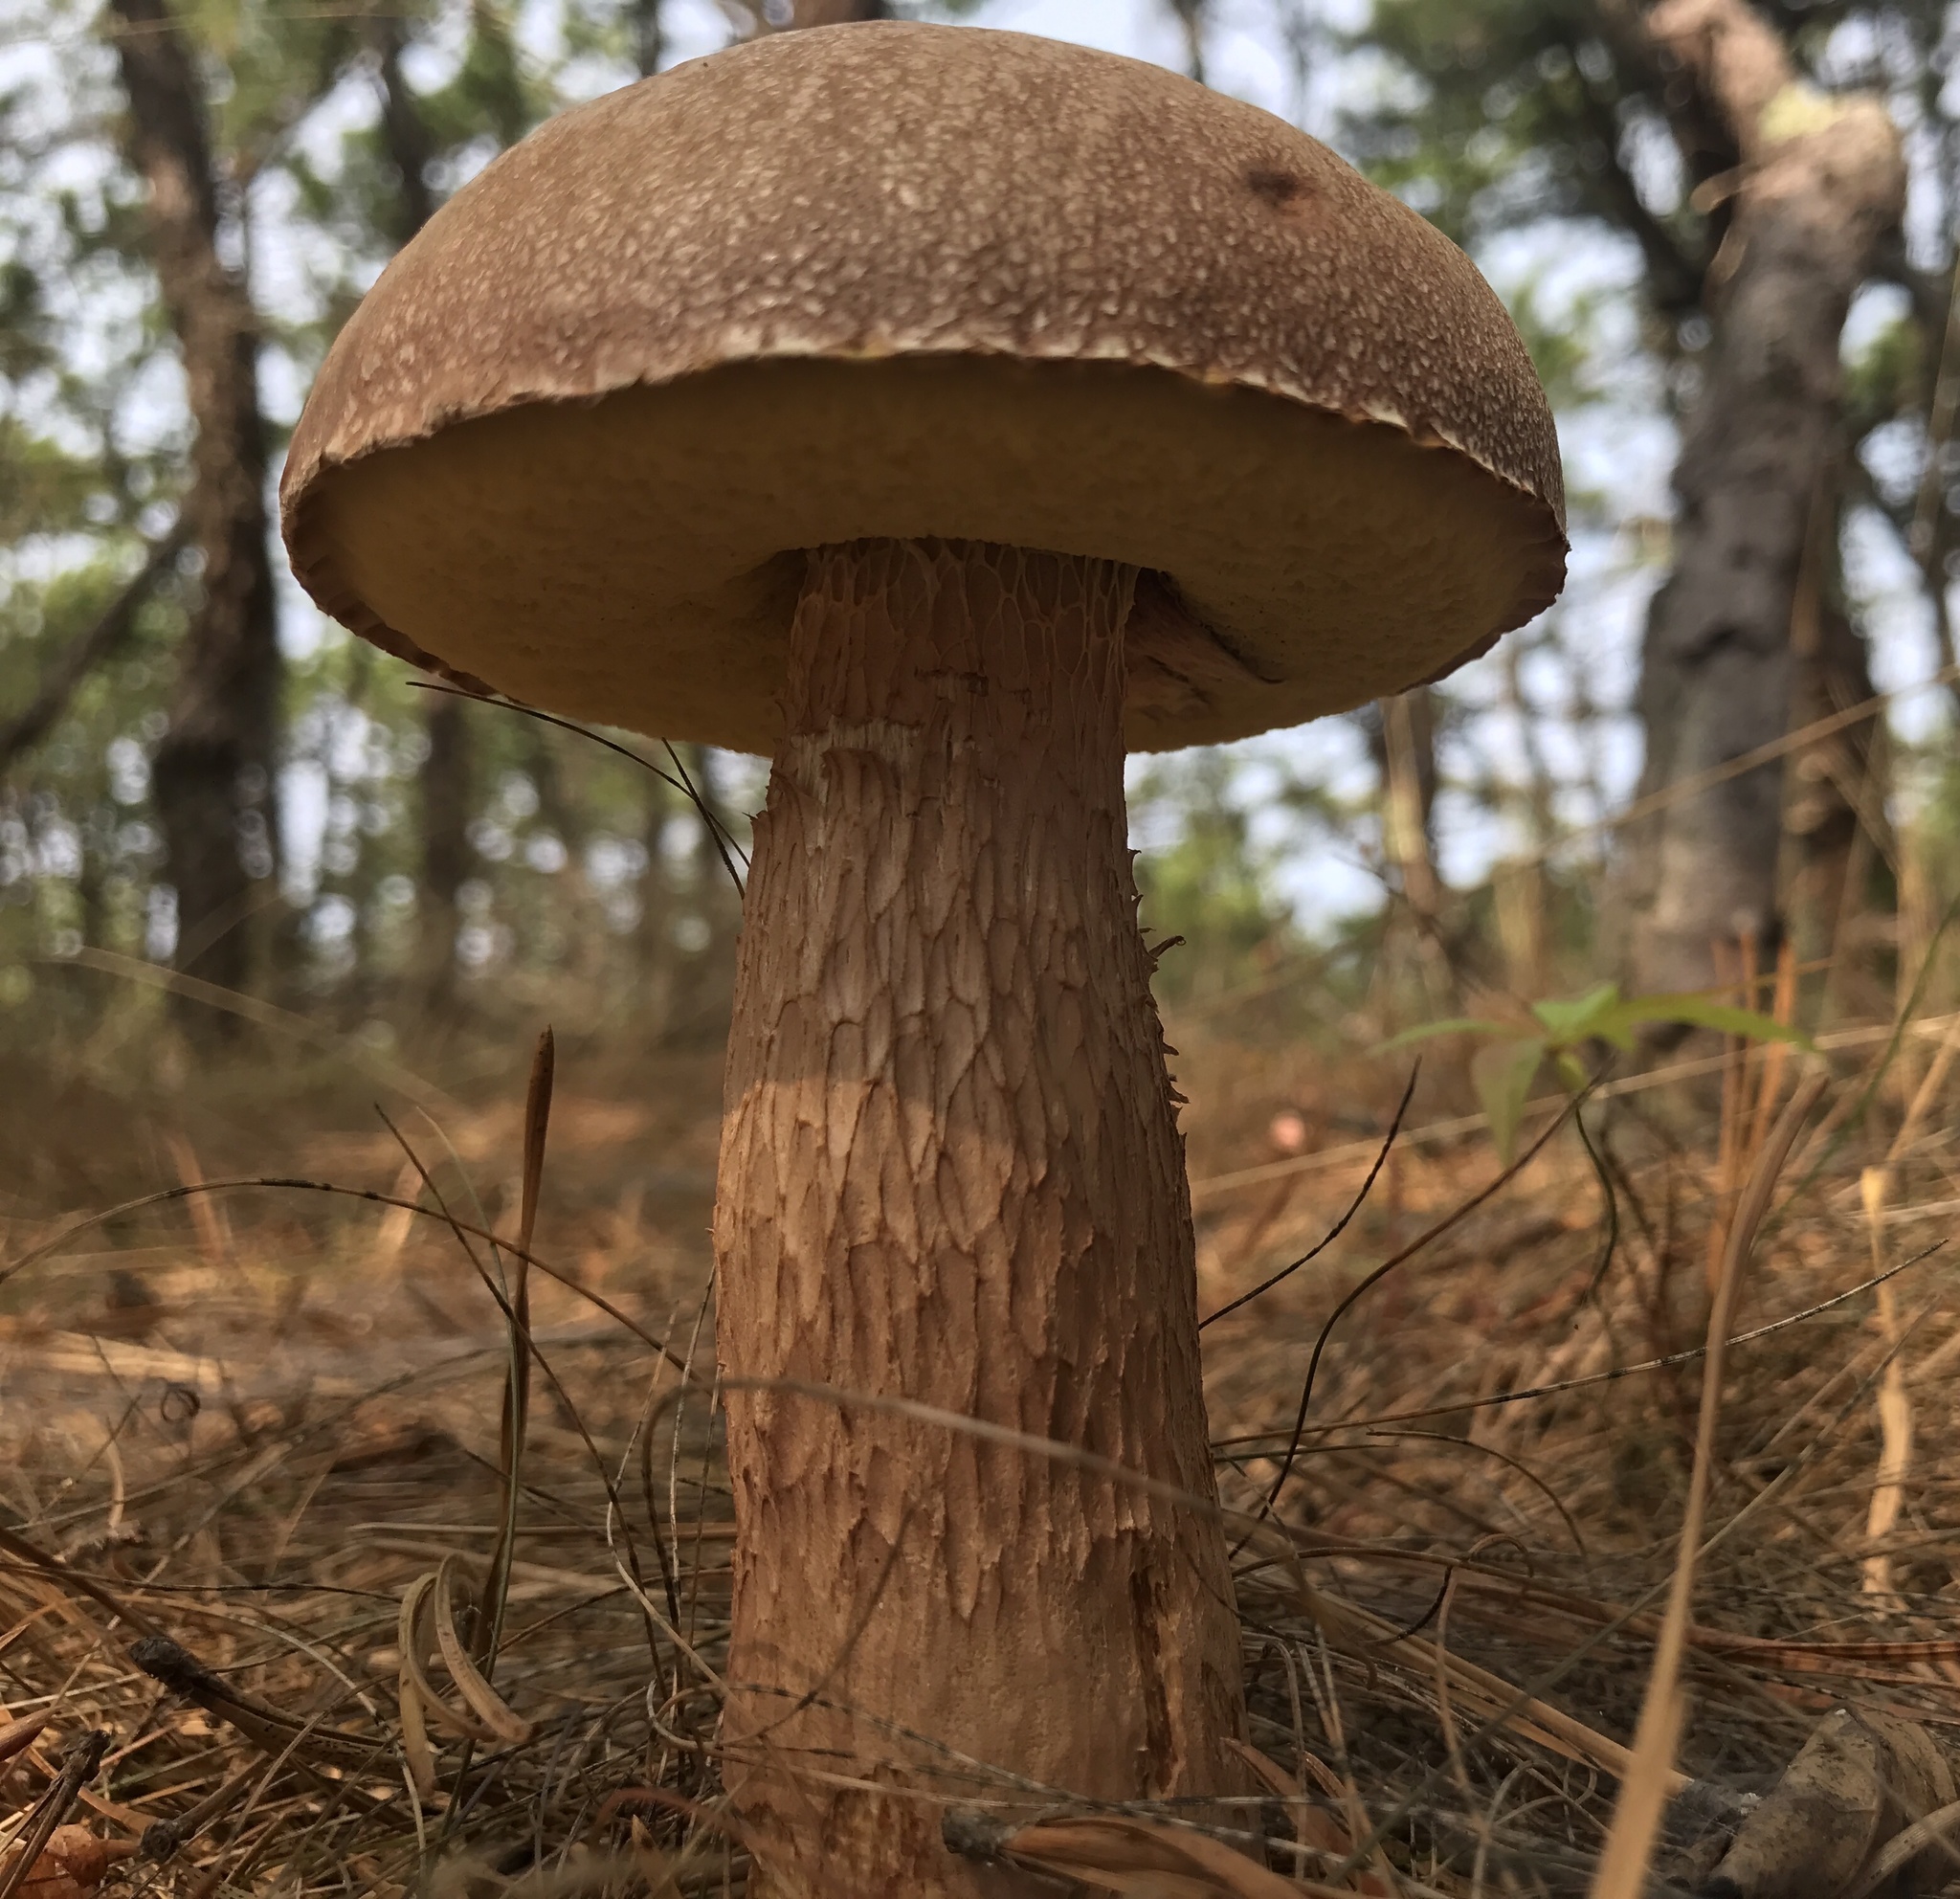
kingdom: Fungi
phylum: Basidiomycota
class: Agaricomycetes
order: Boletales
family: Boletaceae
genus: Aureoboletus
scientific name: Aureoboletus projectellus
